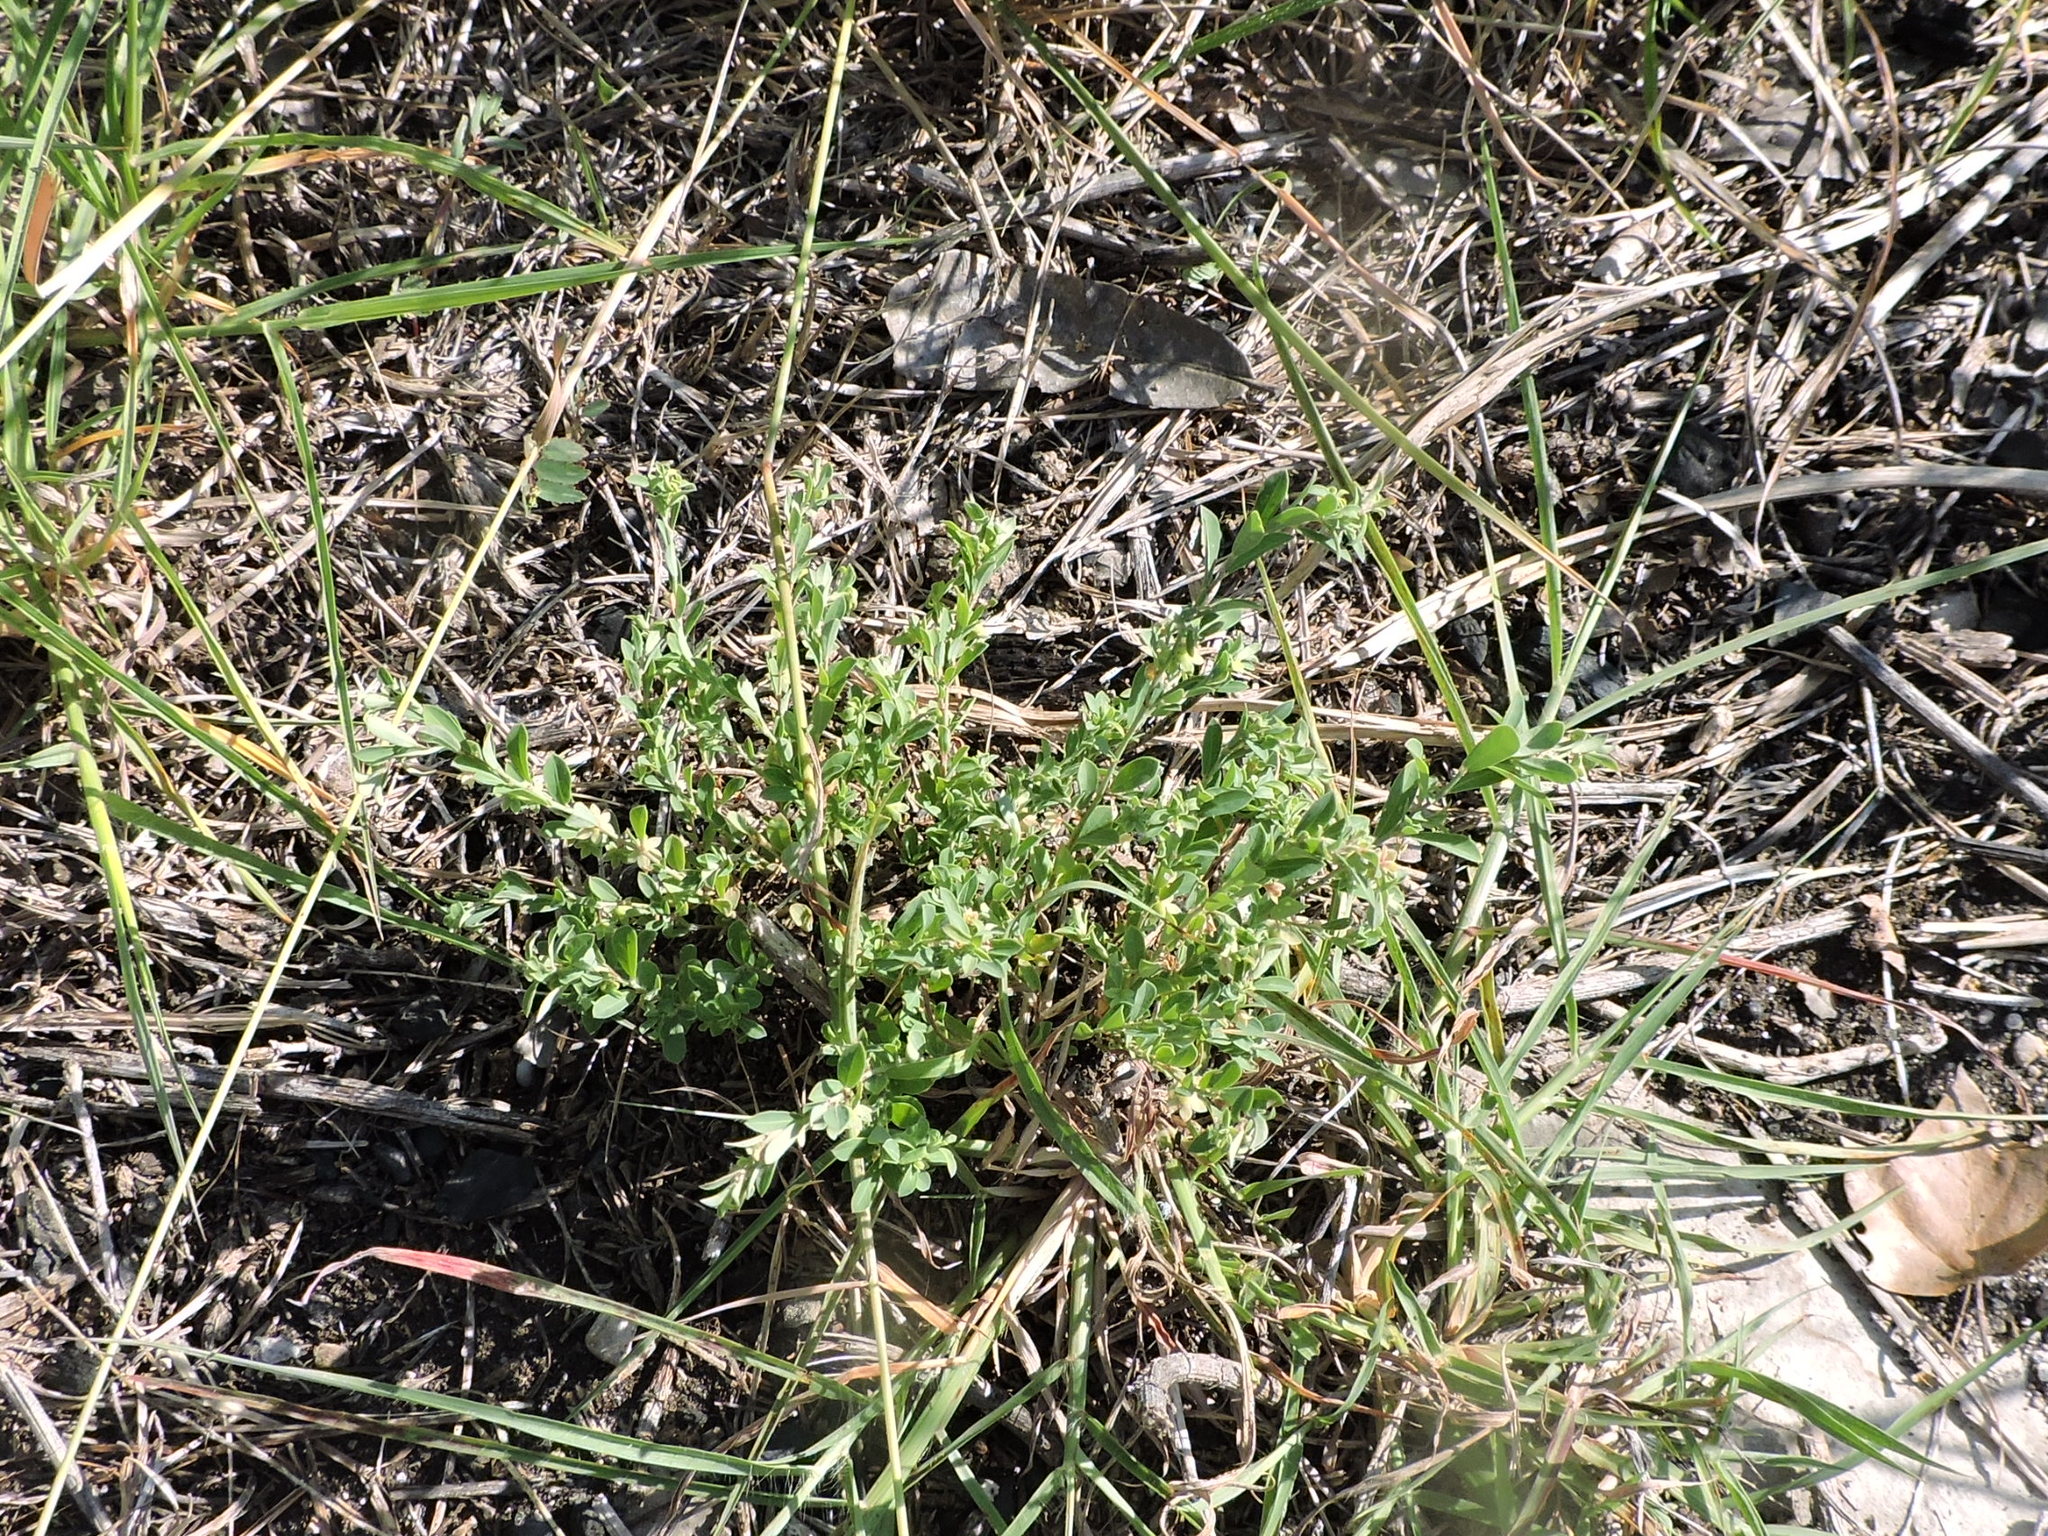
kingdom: Plantae
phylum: Tracheophyta
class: Magnoliopsida
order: Malpighiales
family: Phyllanthaceae
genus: Phyllanthus
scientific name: Phyllanthus polygonoides
